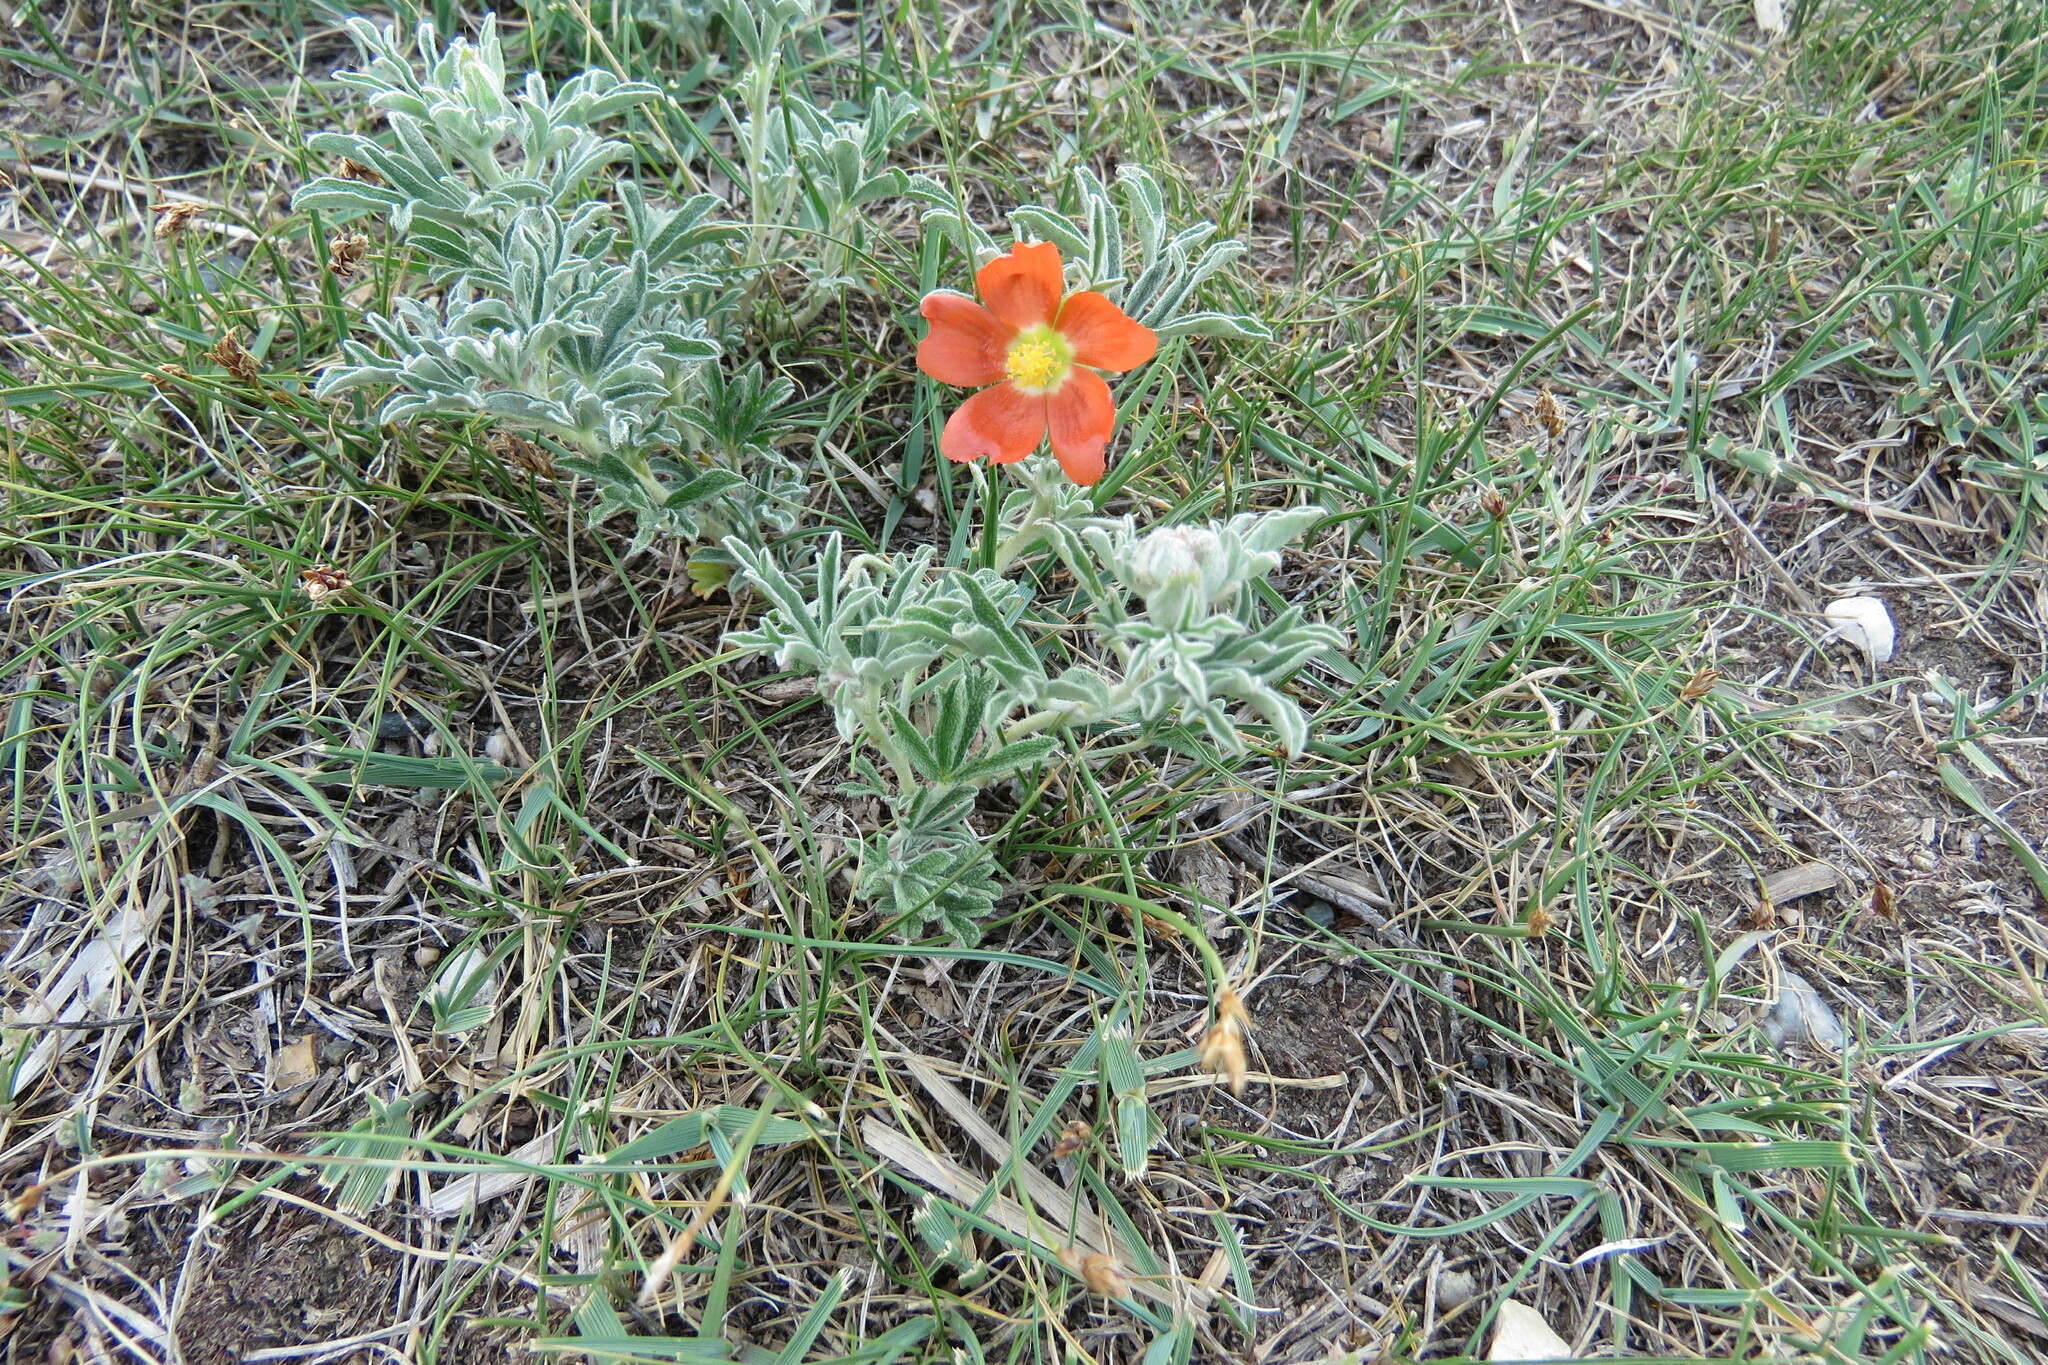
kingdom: Plantae
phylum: Tracheophyta
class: Magnoliopsida
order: Malvales
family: Malvaceae
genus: Sphaeralcea
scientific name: Sphaeralcea coccinea
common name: Moss-rose
